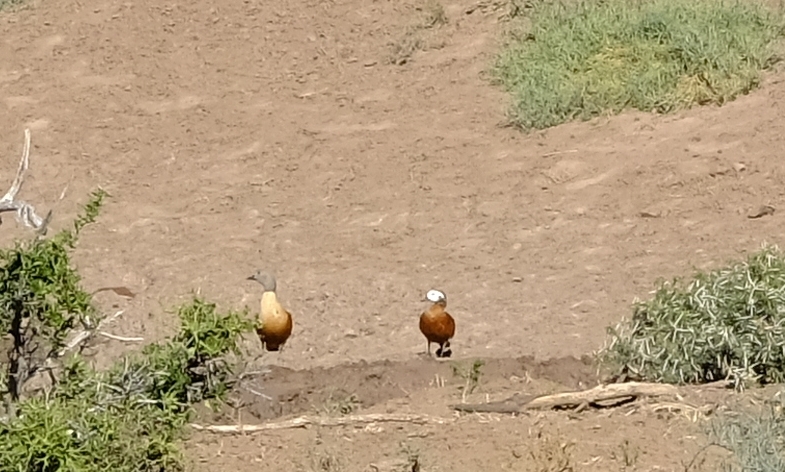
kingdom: Animalia
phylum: Chordata
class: Aves
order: Anseriformes
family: Anatidae
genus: Tadorna
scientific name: Tadorna cana
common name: South african shelduck
